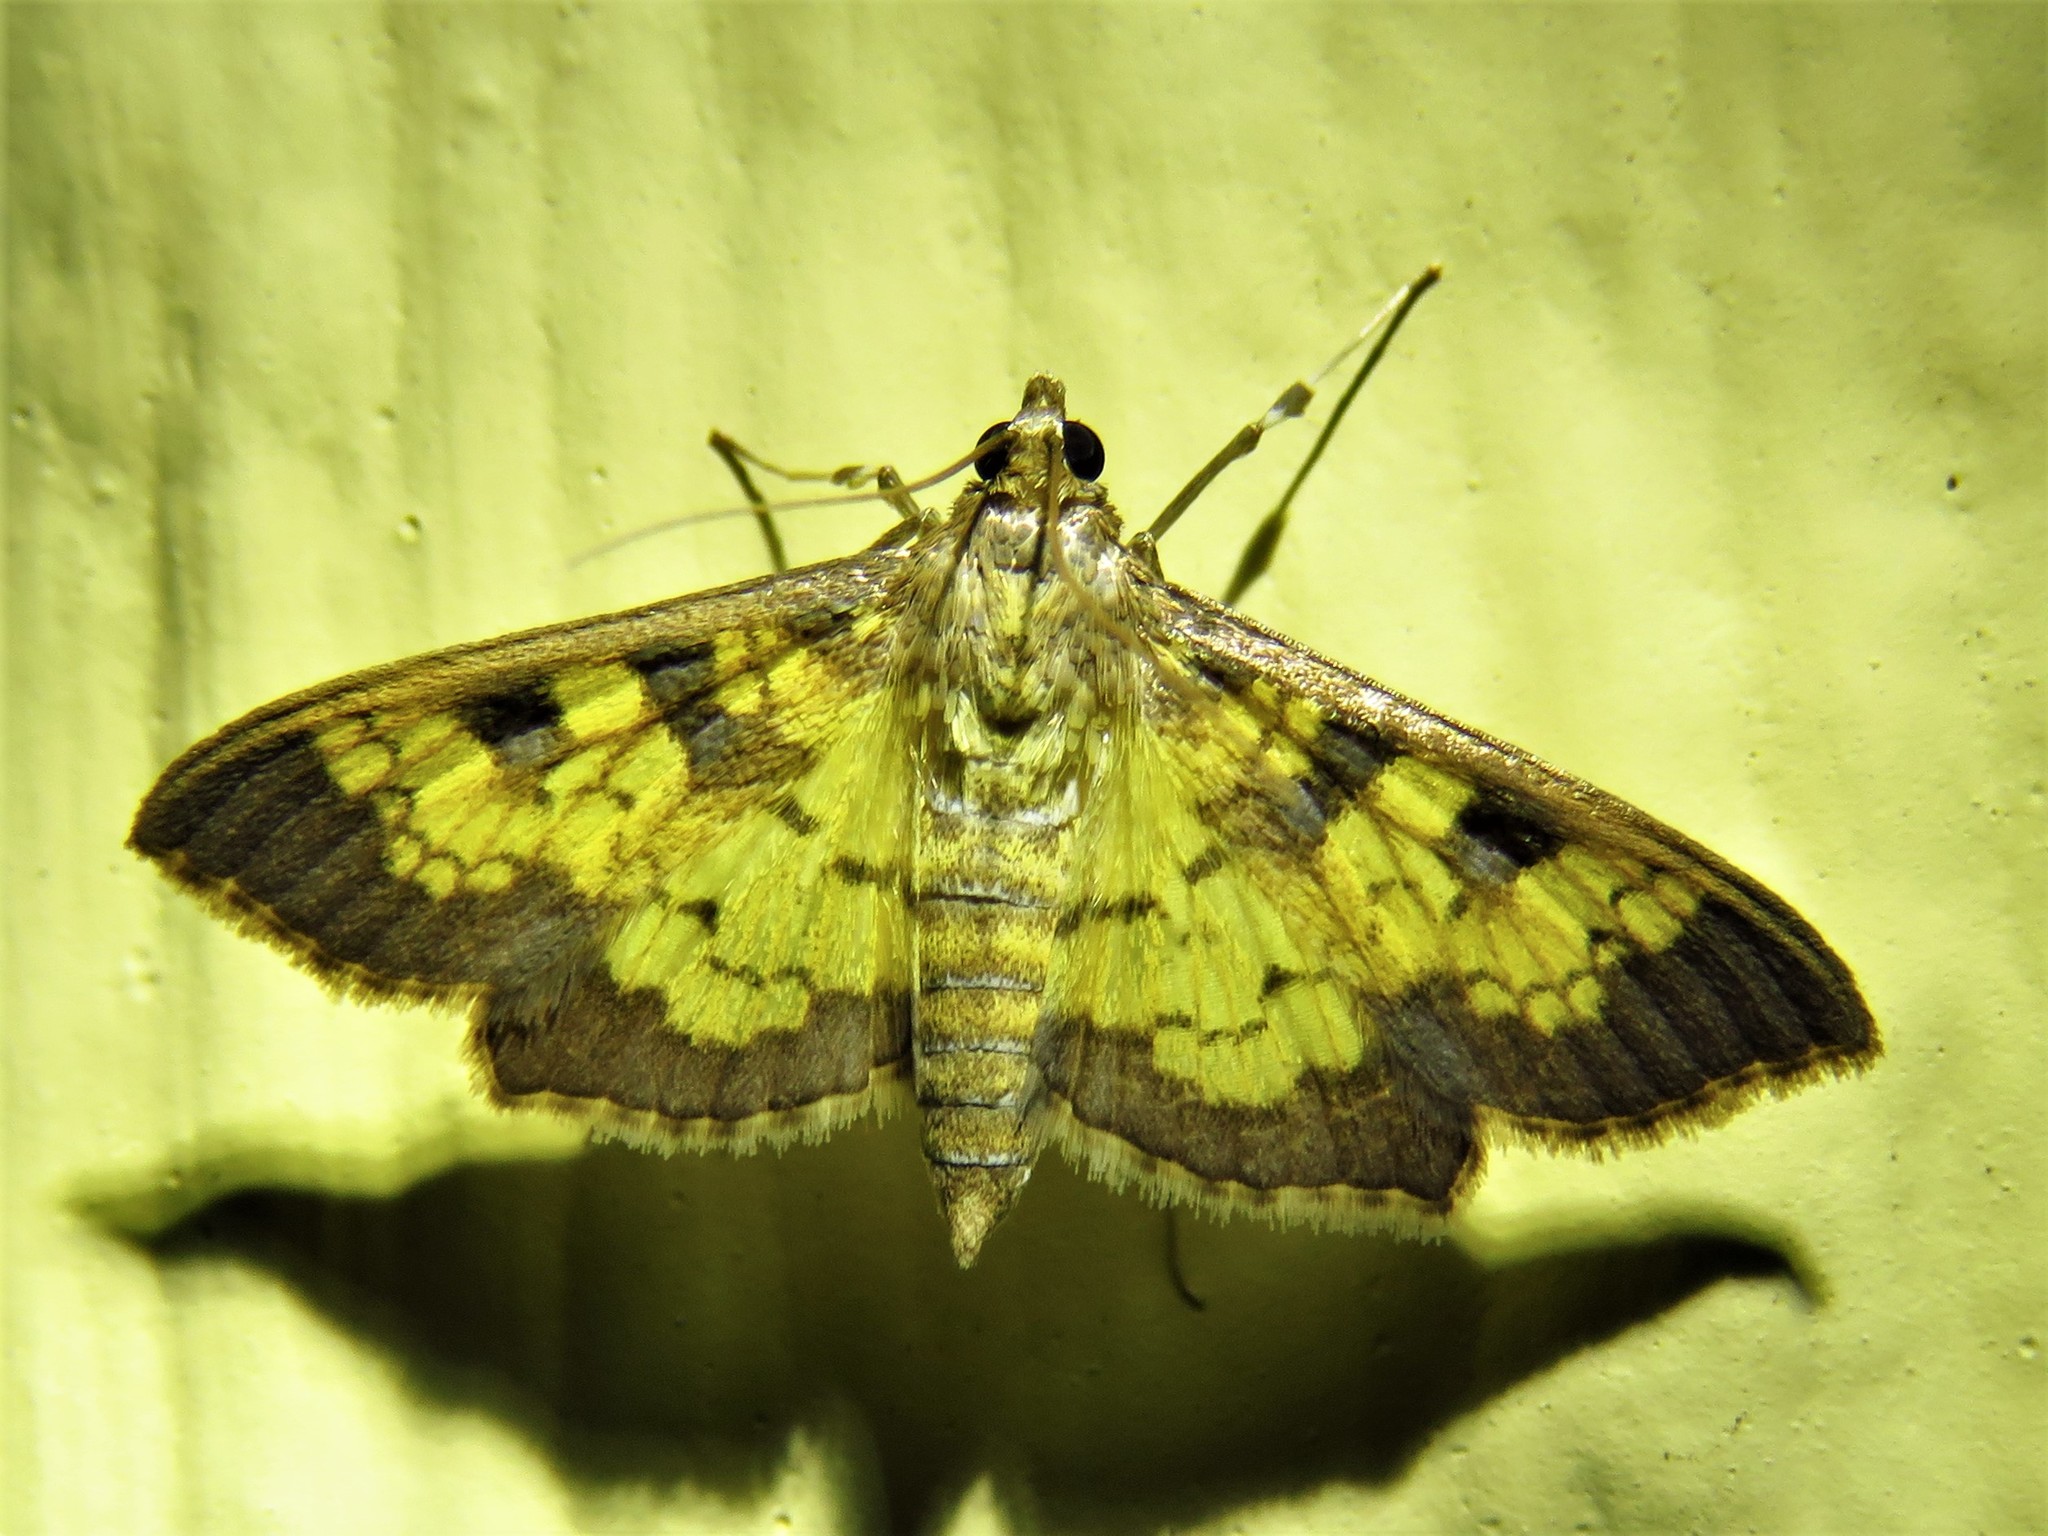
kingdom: Animalia
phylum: Arthropoda
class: Insecta
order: Lepidoptera
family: Crambidae
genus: Cryptographis
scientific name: Cryptographis elealis
